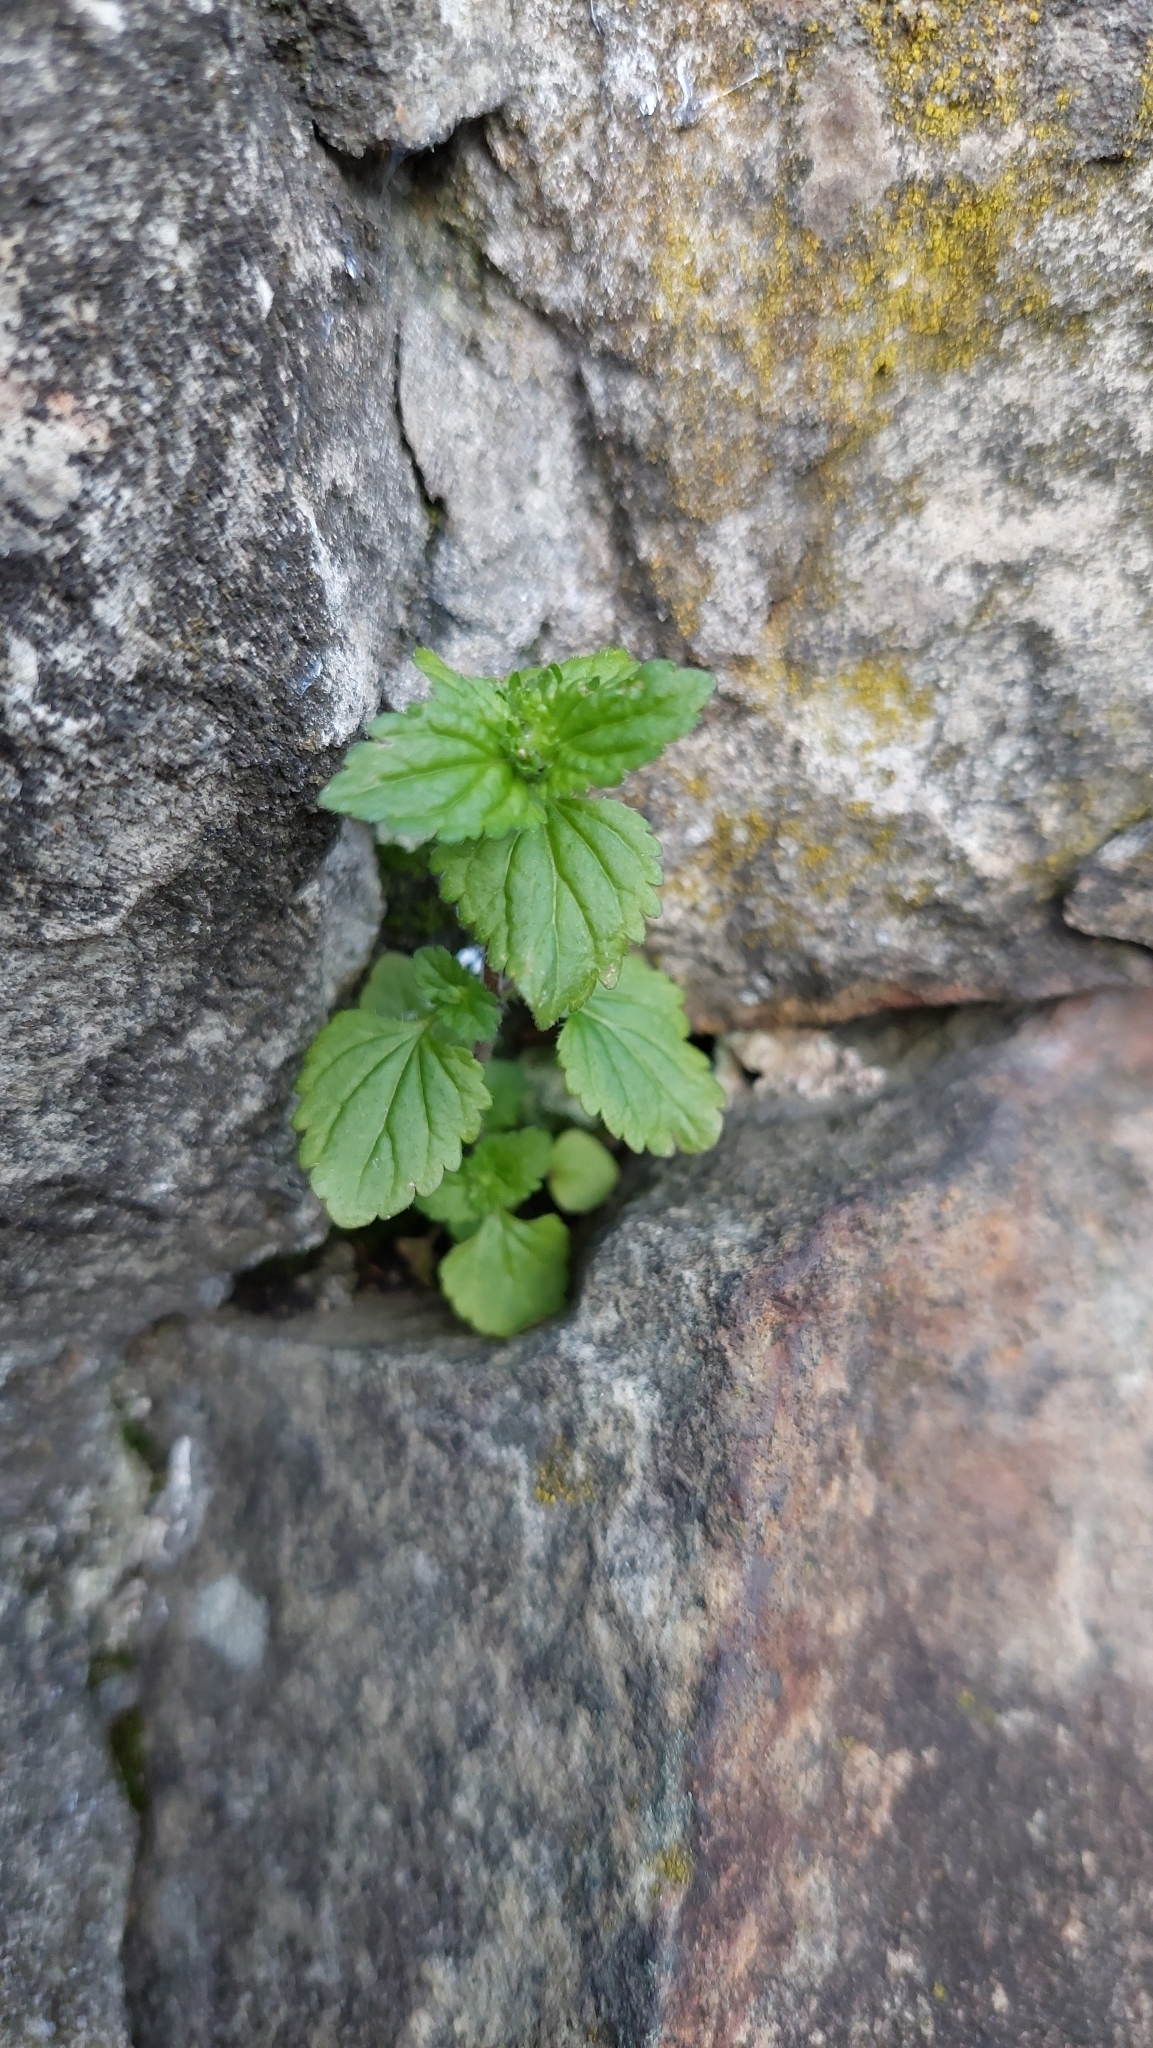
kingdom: Plantae
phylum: Tracheophyta
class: Magnoliopsida
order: Lamiales
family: Plantaginaceae
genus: Veronica
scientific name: Veronica javanica
